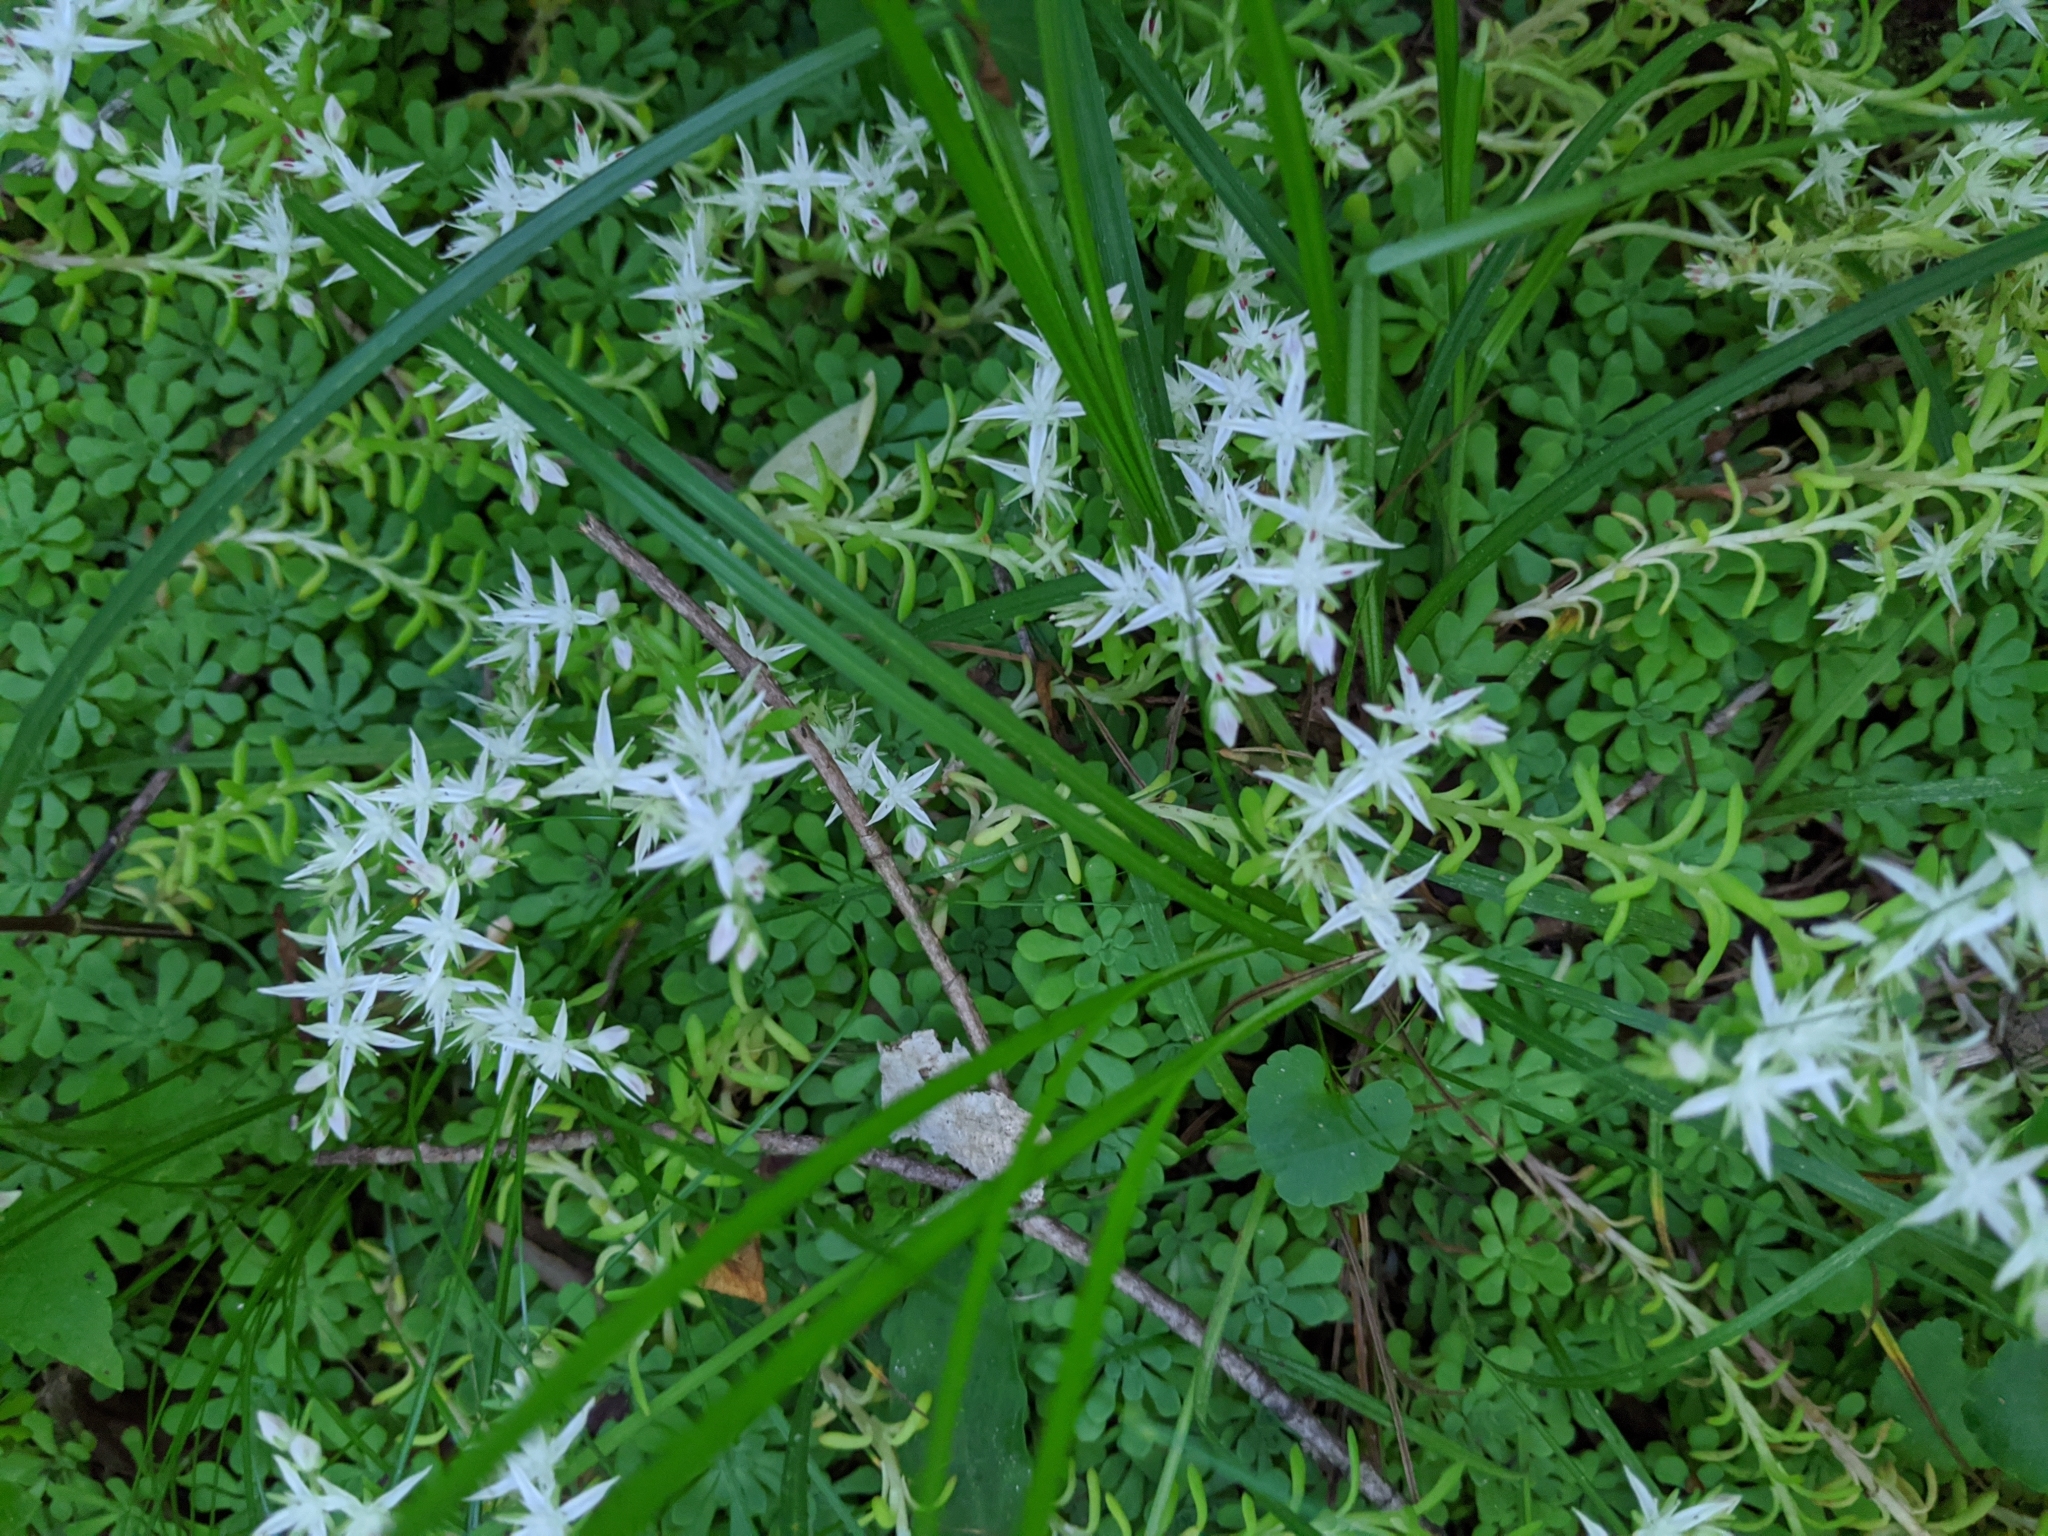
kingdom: Plantae
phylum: Tracheophyta
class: Magnoliopsida
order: Saxifragales
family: Crassulaceae
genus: Sedum
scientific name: Sedum glaucophyllum
